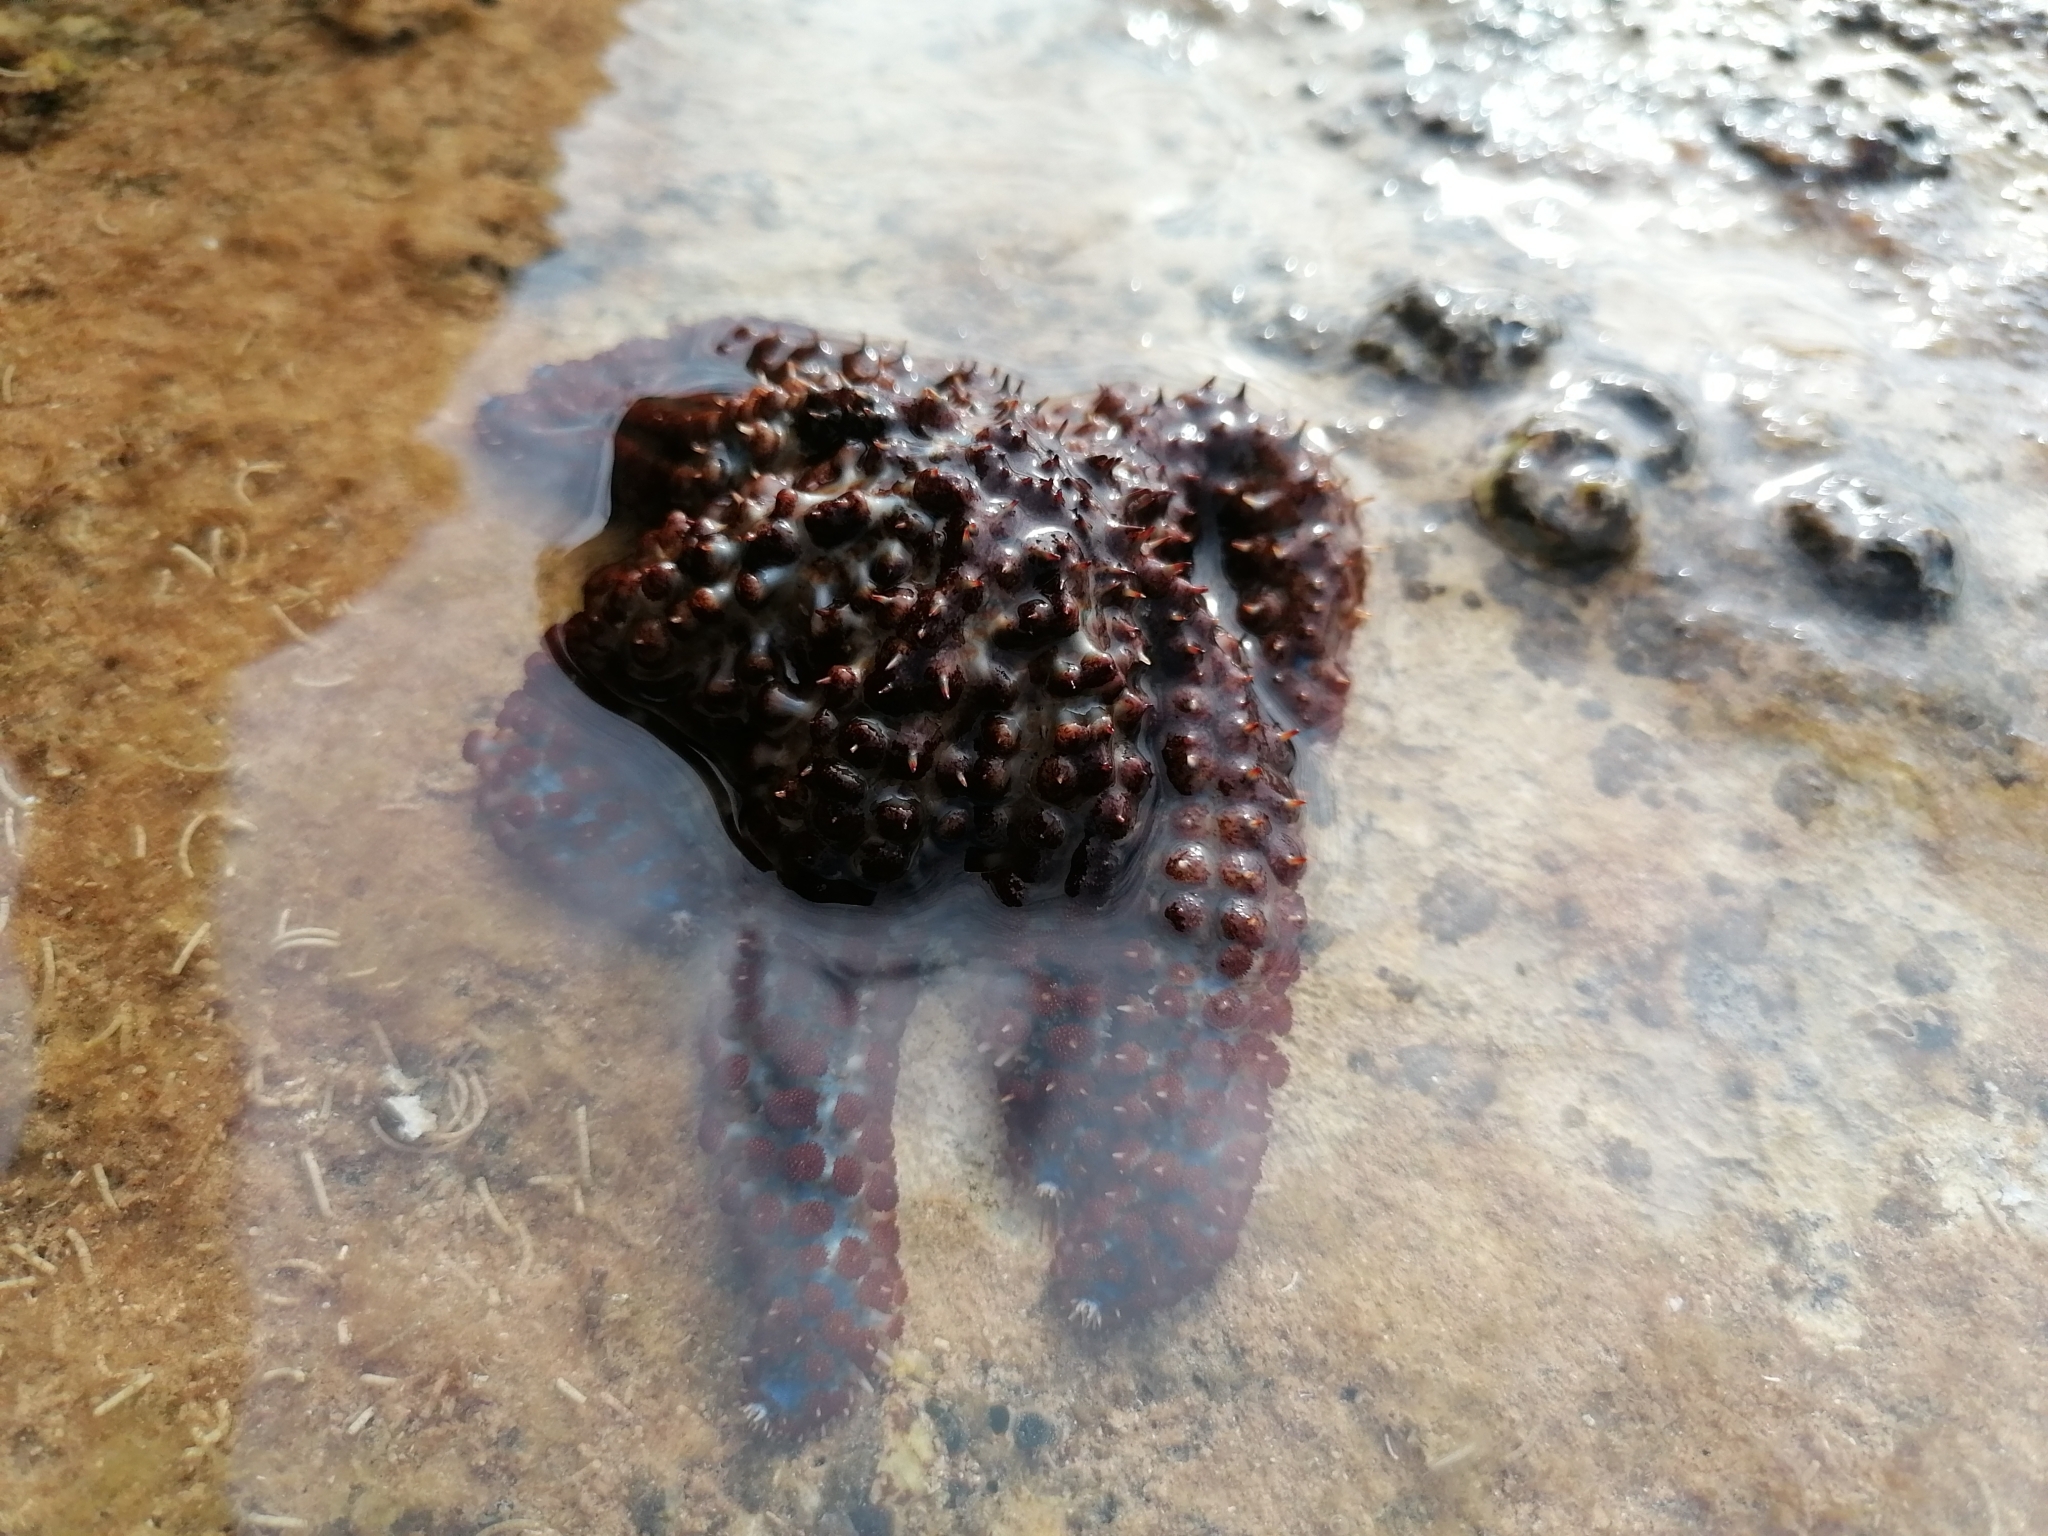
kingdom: Animalia
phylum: Echinodermata
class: Asteroidea
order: Forcipulatida
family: Asteriidae
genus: Coscinasterias
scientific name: Coscinasterias tenuispina
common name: Blue spiny starfish
